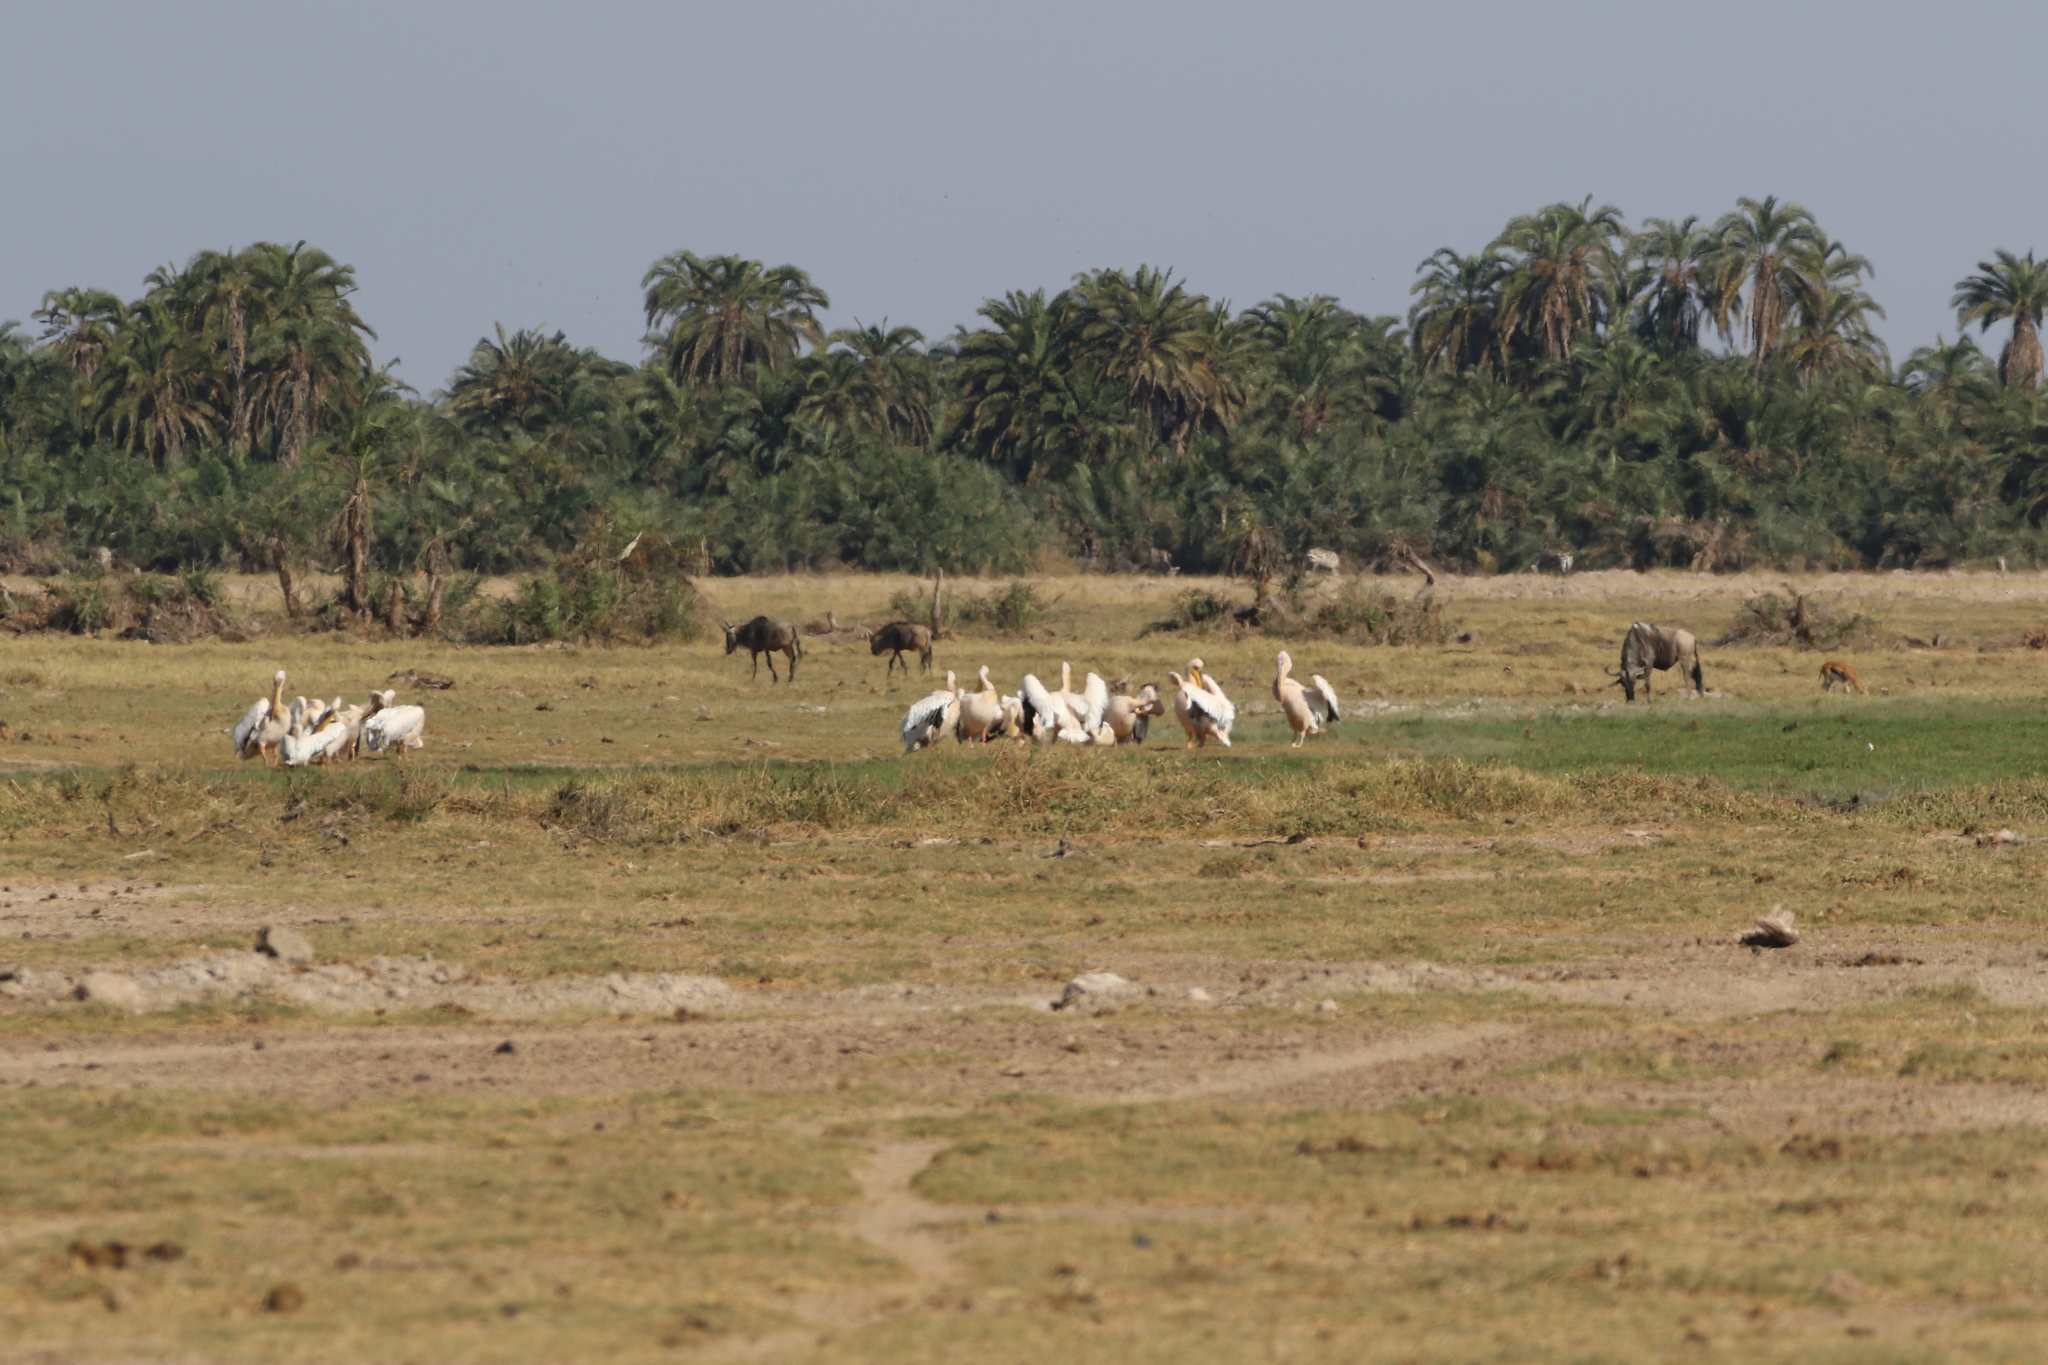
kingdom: Animalia
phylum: Chordata
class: Aves
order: Pelecaniformes
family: Pelecanidae
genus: Pelecanus
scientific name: Pelecanus onocrotalus
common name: Great white pelican
